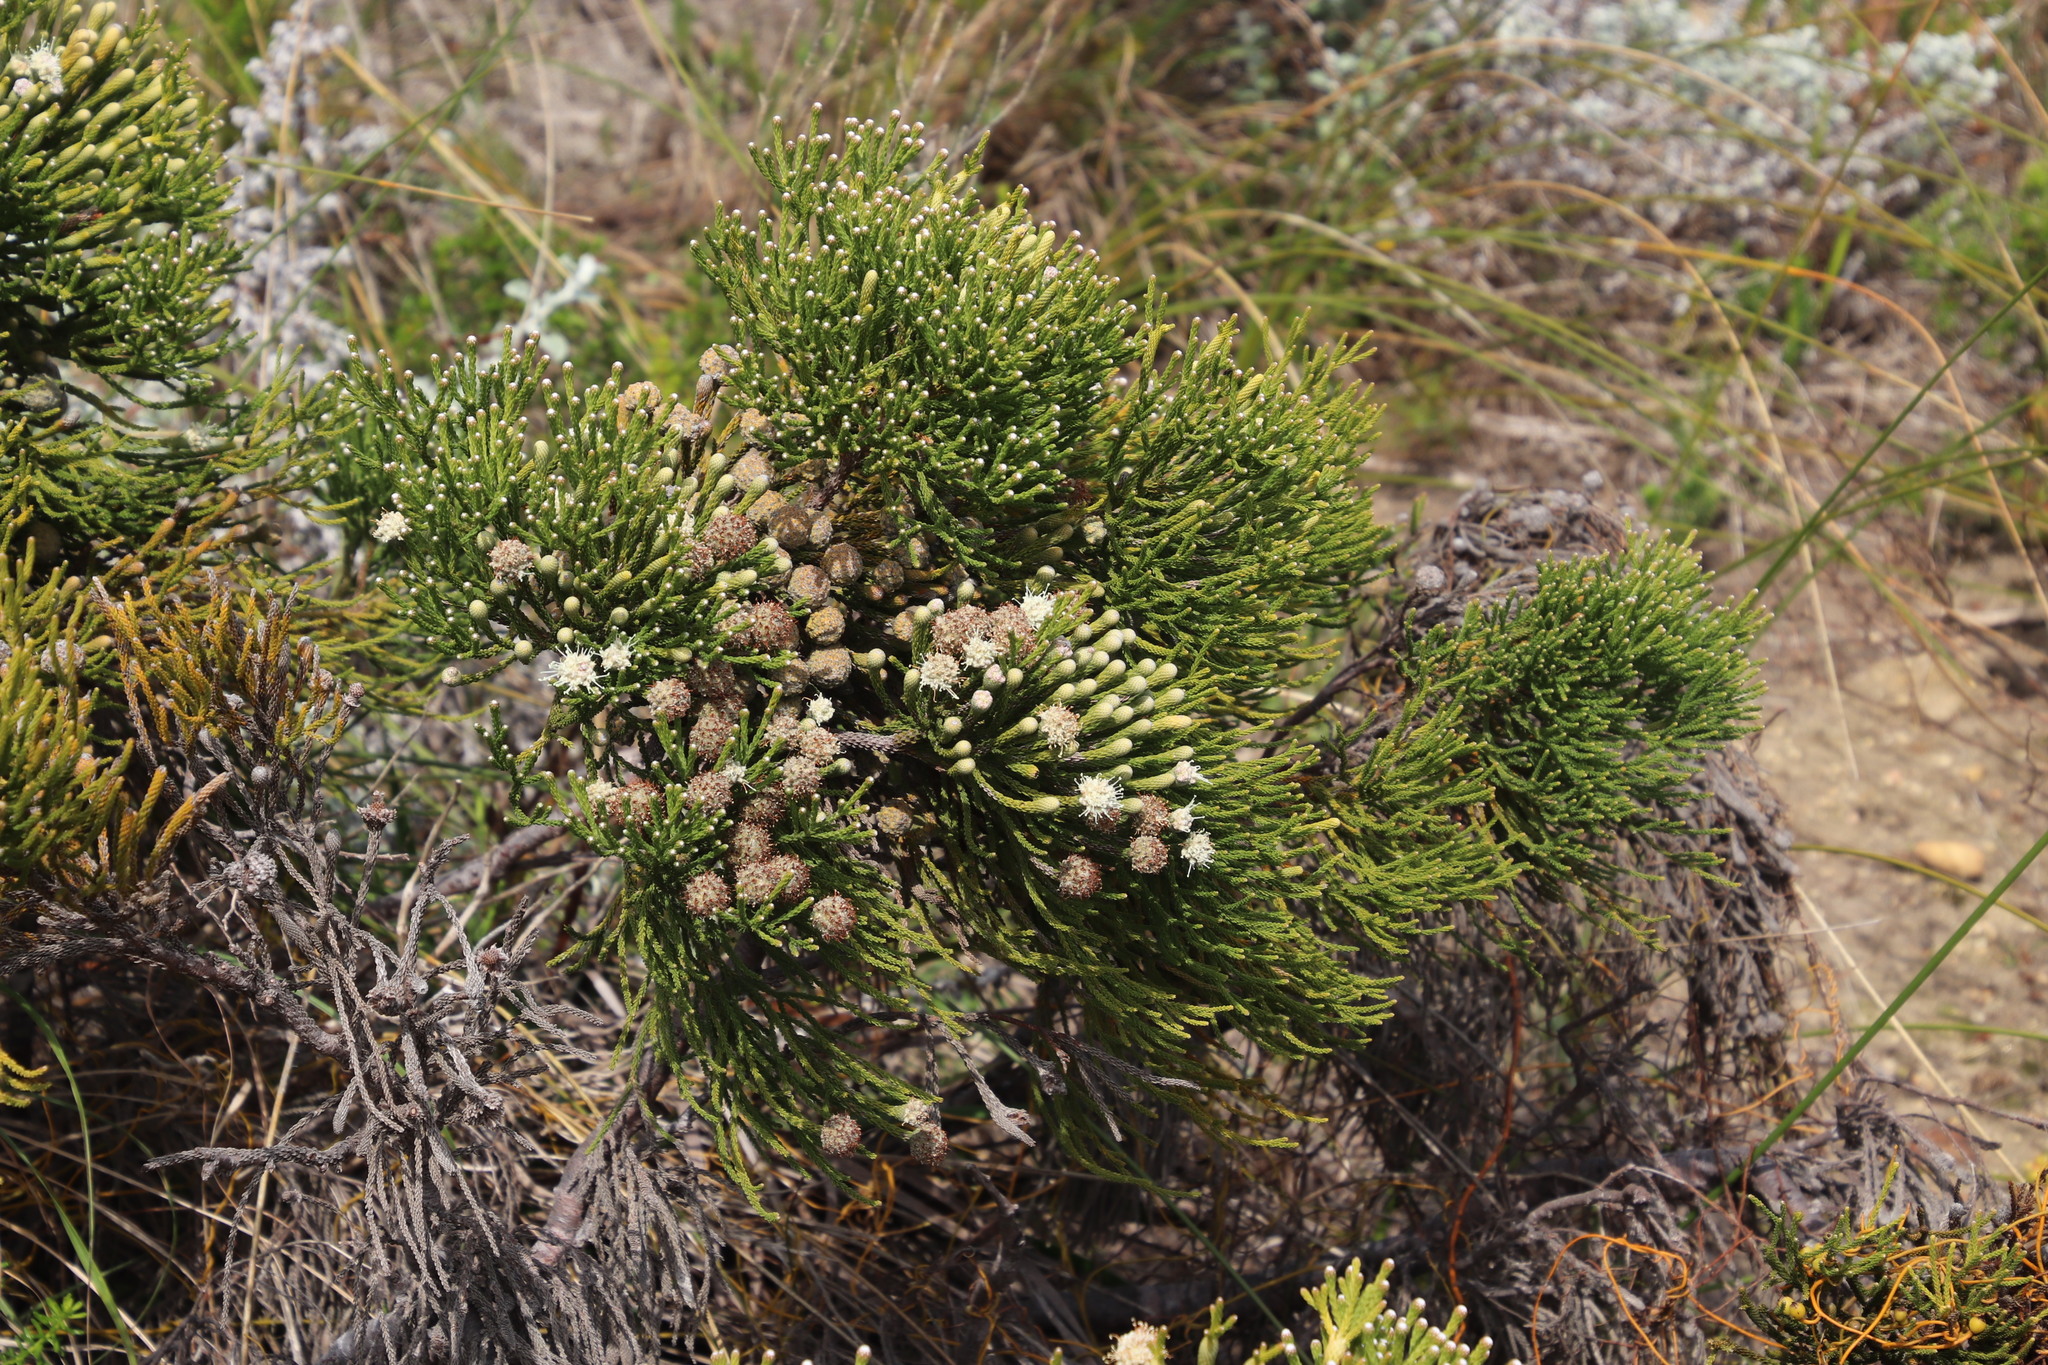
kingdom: Plantae
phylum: Tracheophyta
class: Magnoliopsida
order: Bruniales
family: Bruniaceae
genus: Brunia
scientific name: Brunia noduliflora
